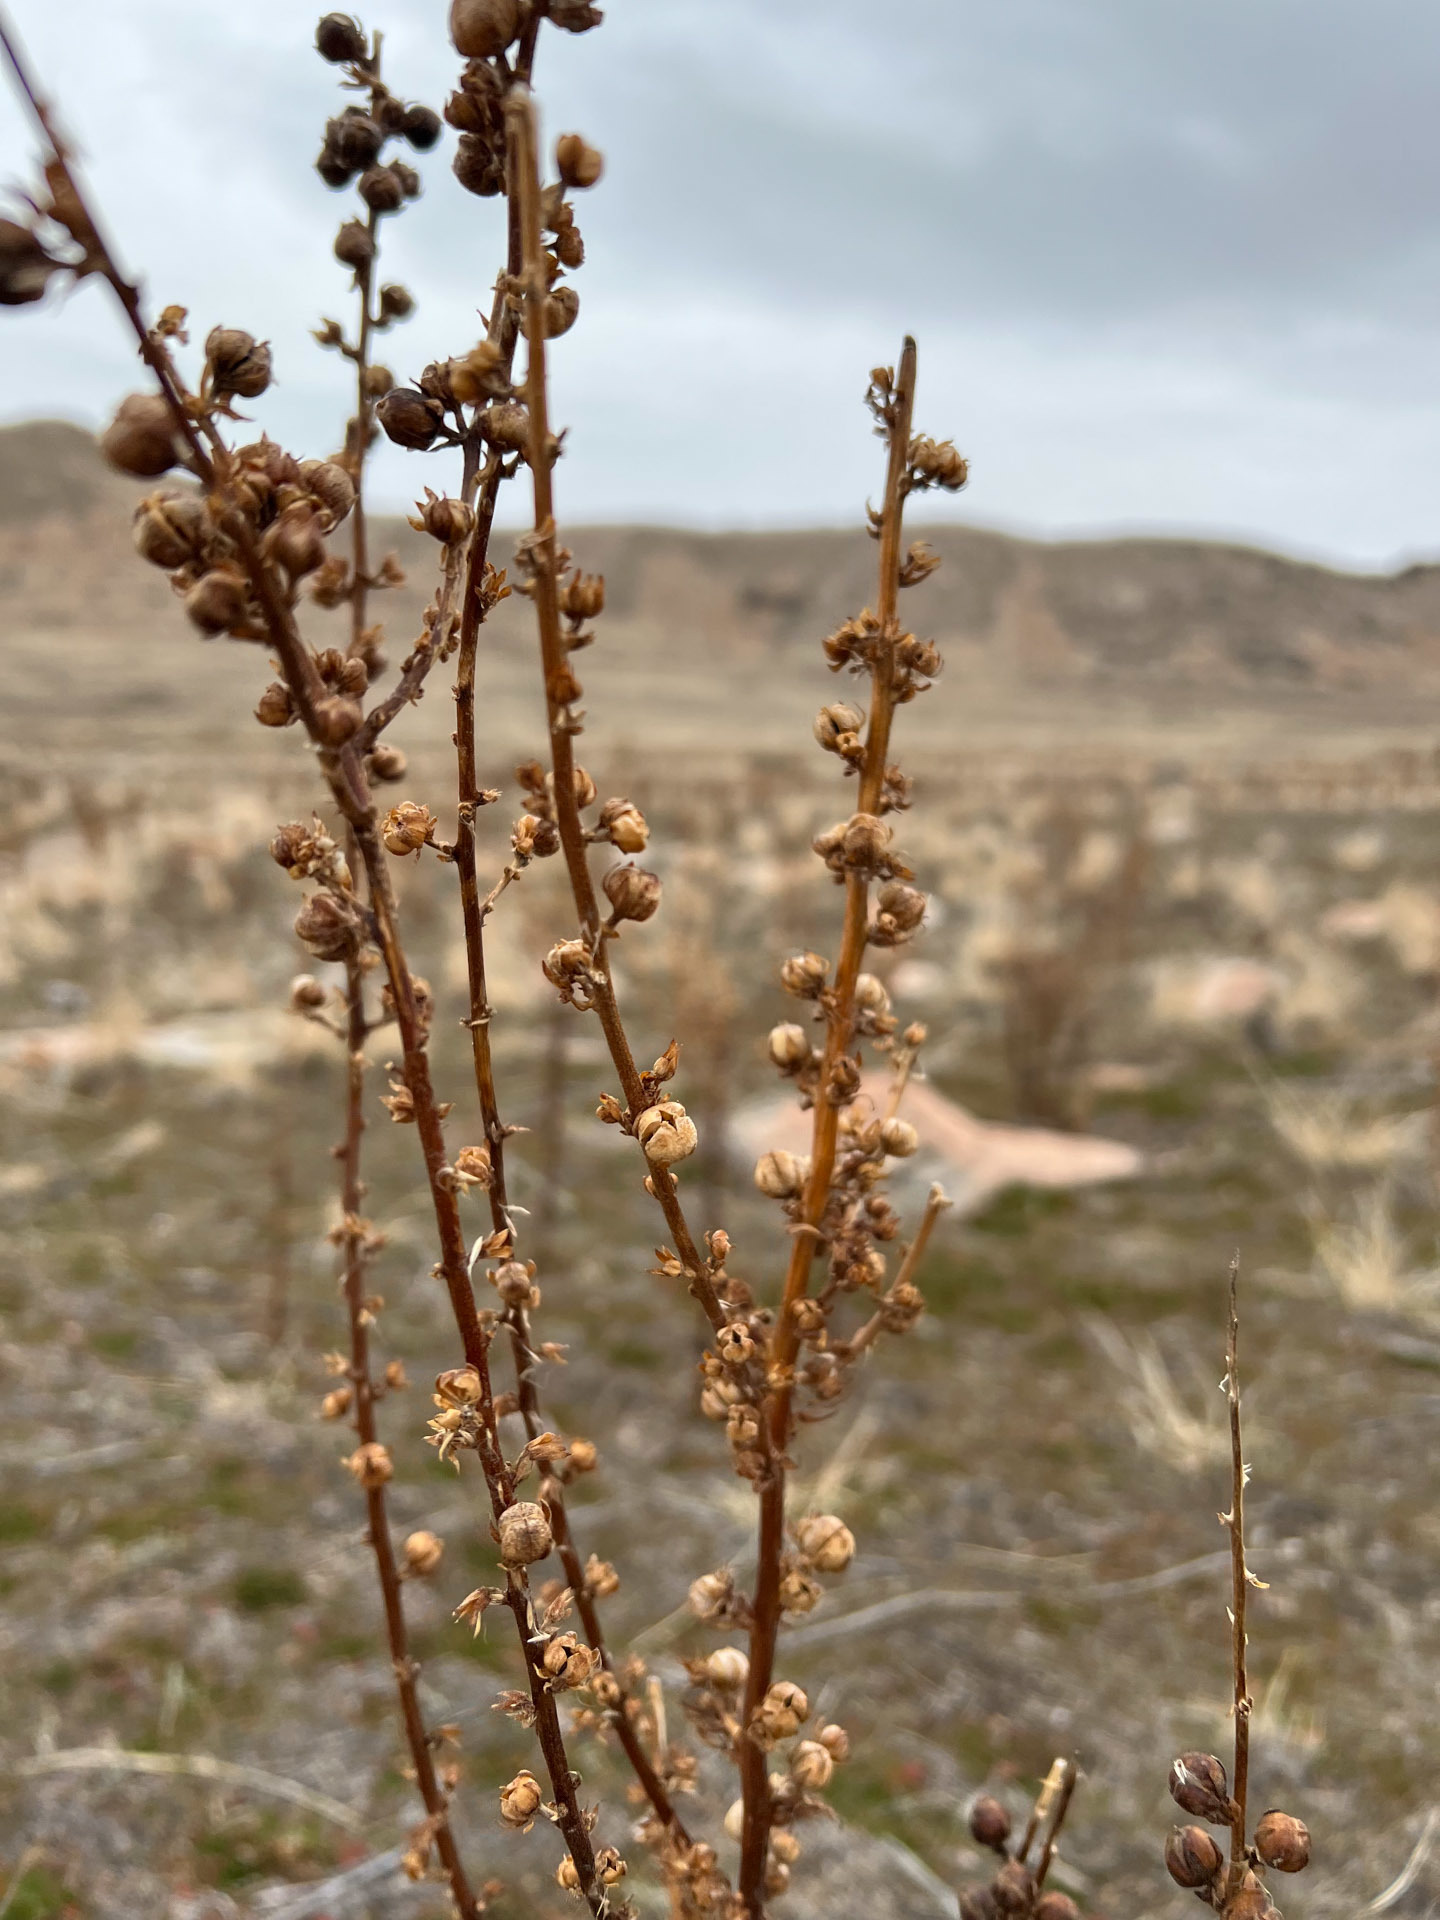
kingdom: Plantae
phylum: Tracheophyta
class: Magnoliopsida
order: Lamiales
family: Scrophulariaceae
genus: Verbascum
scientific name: Verbascum virgatum
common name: Twiggy mullein
